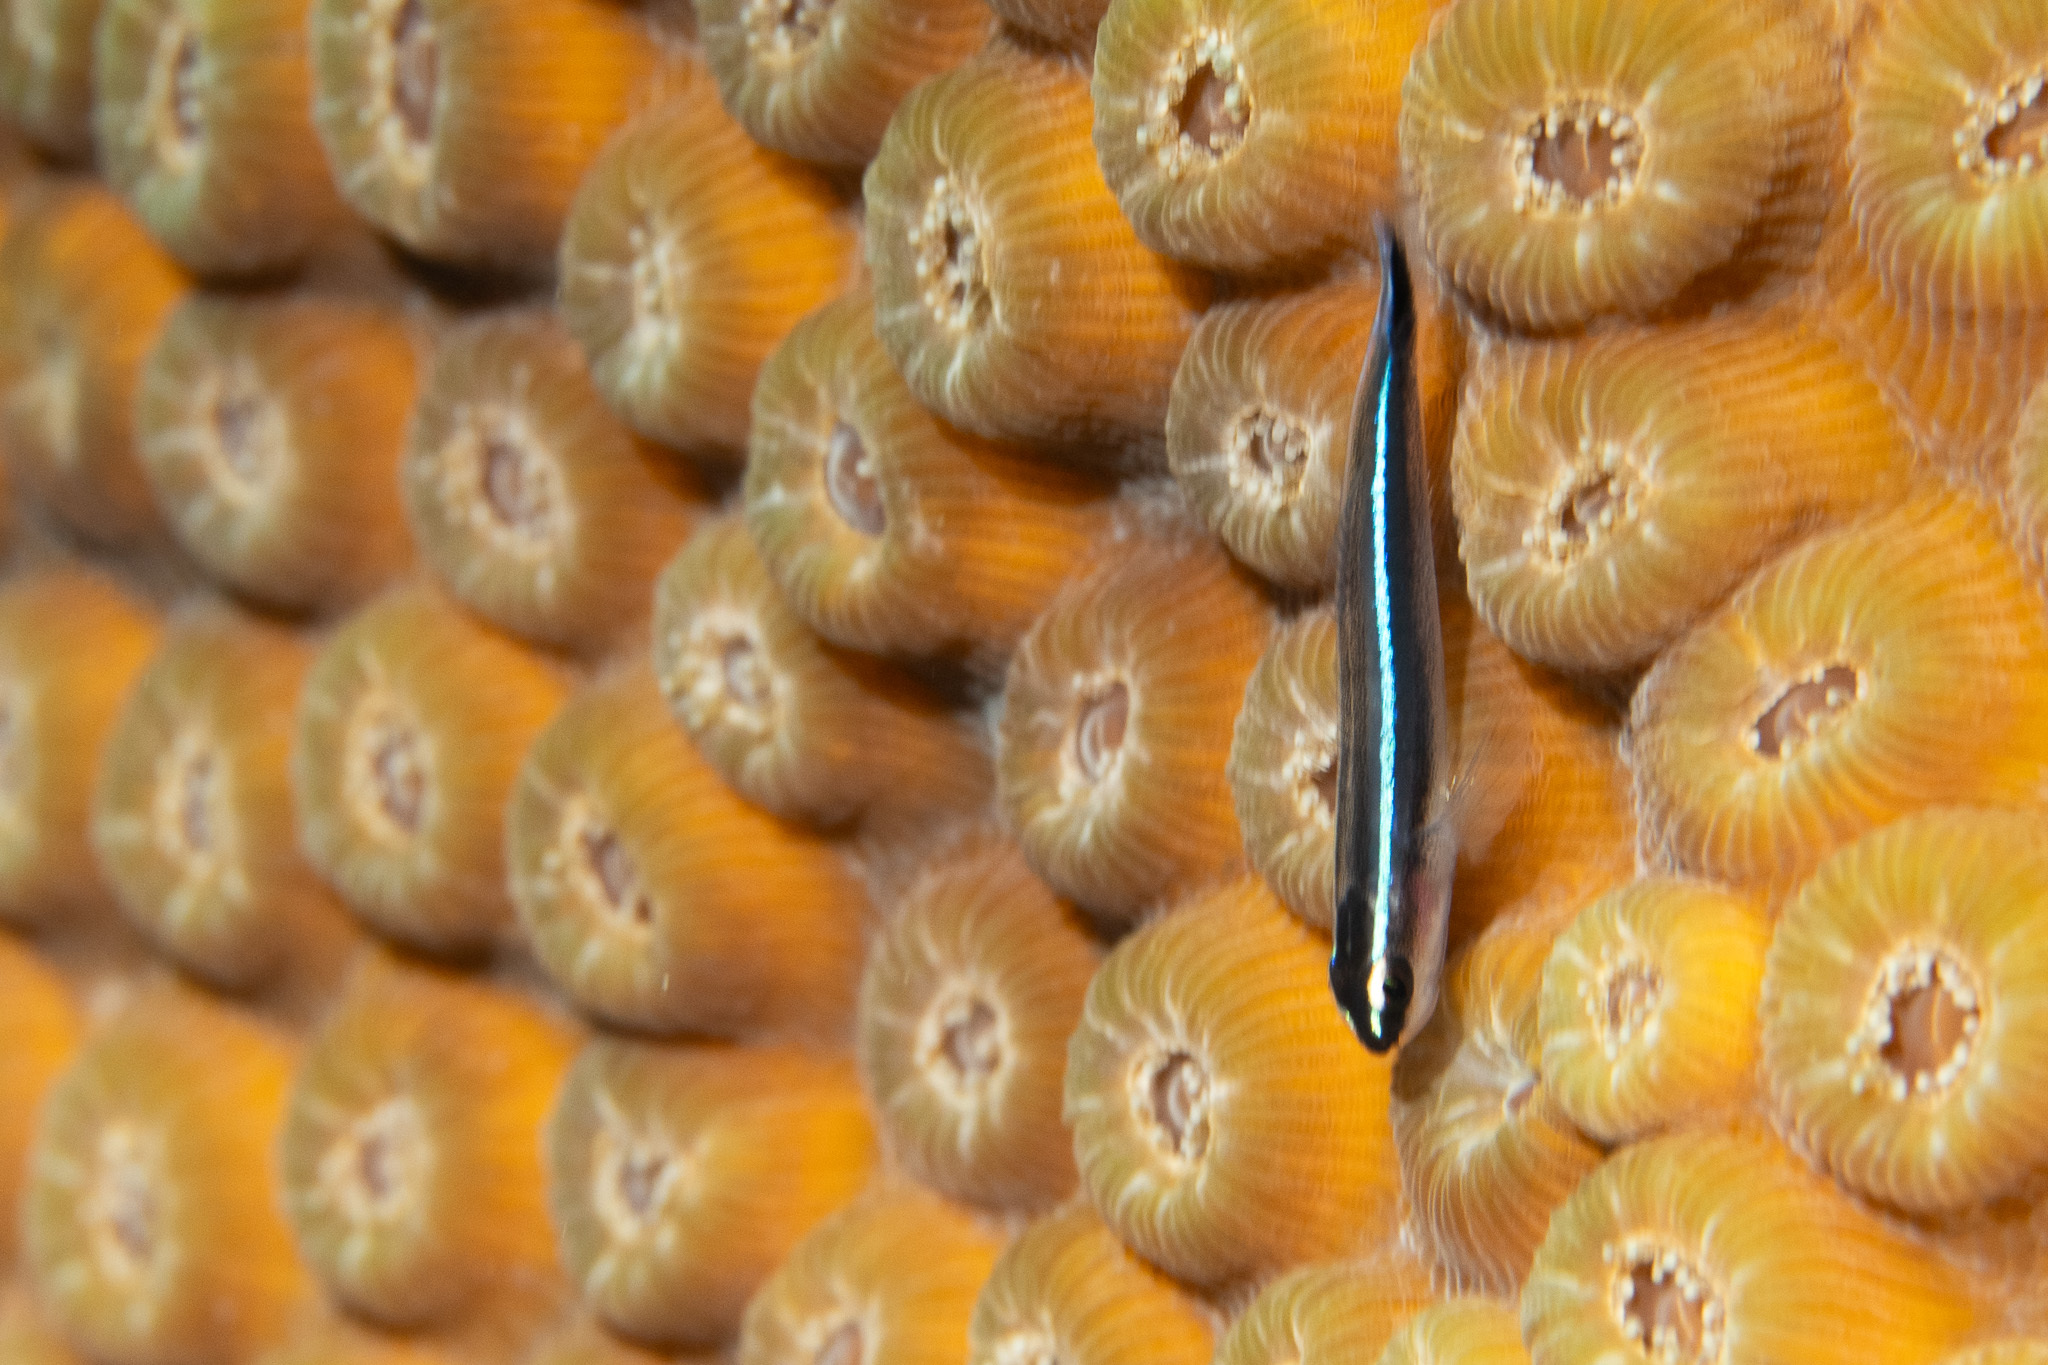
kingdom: Animalia
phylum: Chordata
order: Perciformes
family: Gobiidae
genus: Elacatinus
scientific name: Elacatinus lobeli
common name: Caribbean neon goby
